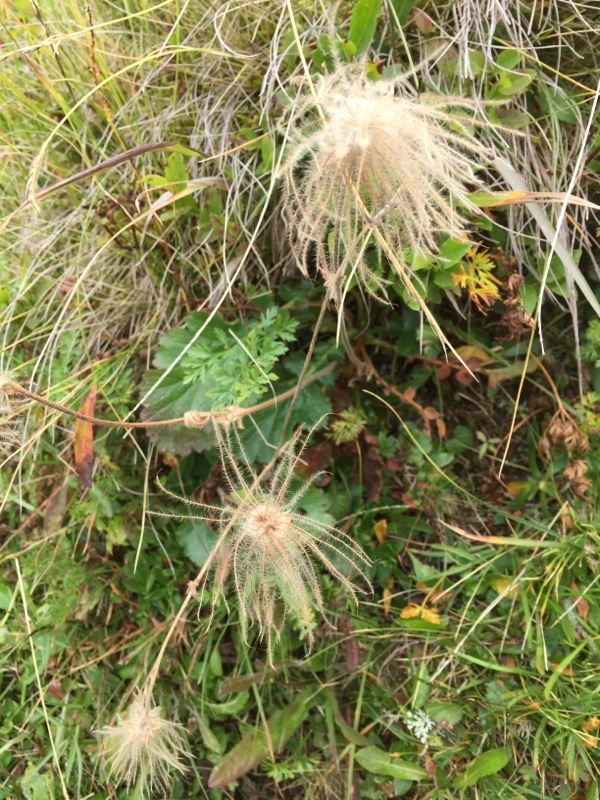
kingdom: Plantae
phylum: Tracheophyta
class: Magnoliopsida
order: Rosales
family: Rosaceae
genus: Geum
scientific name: Geum montanum
